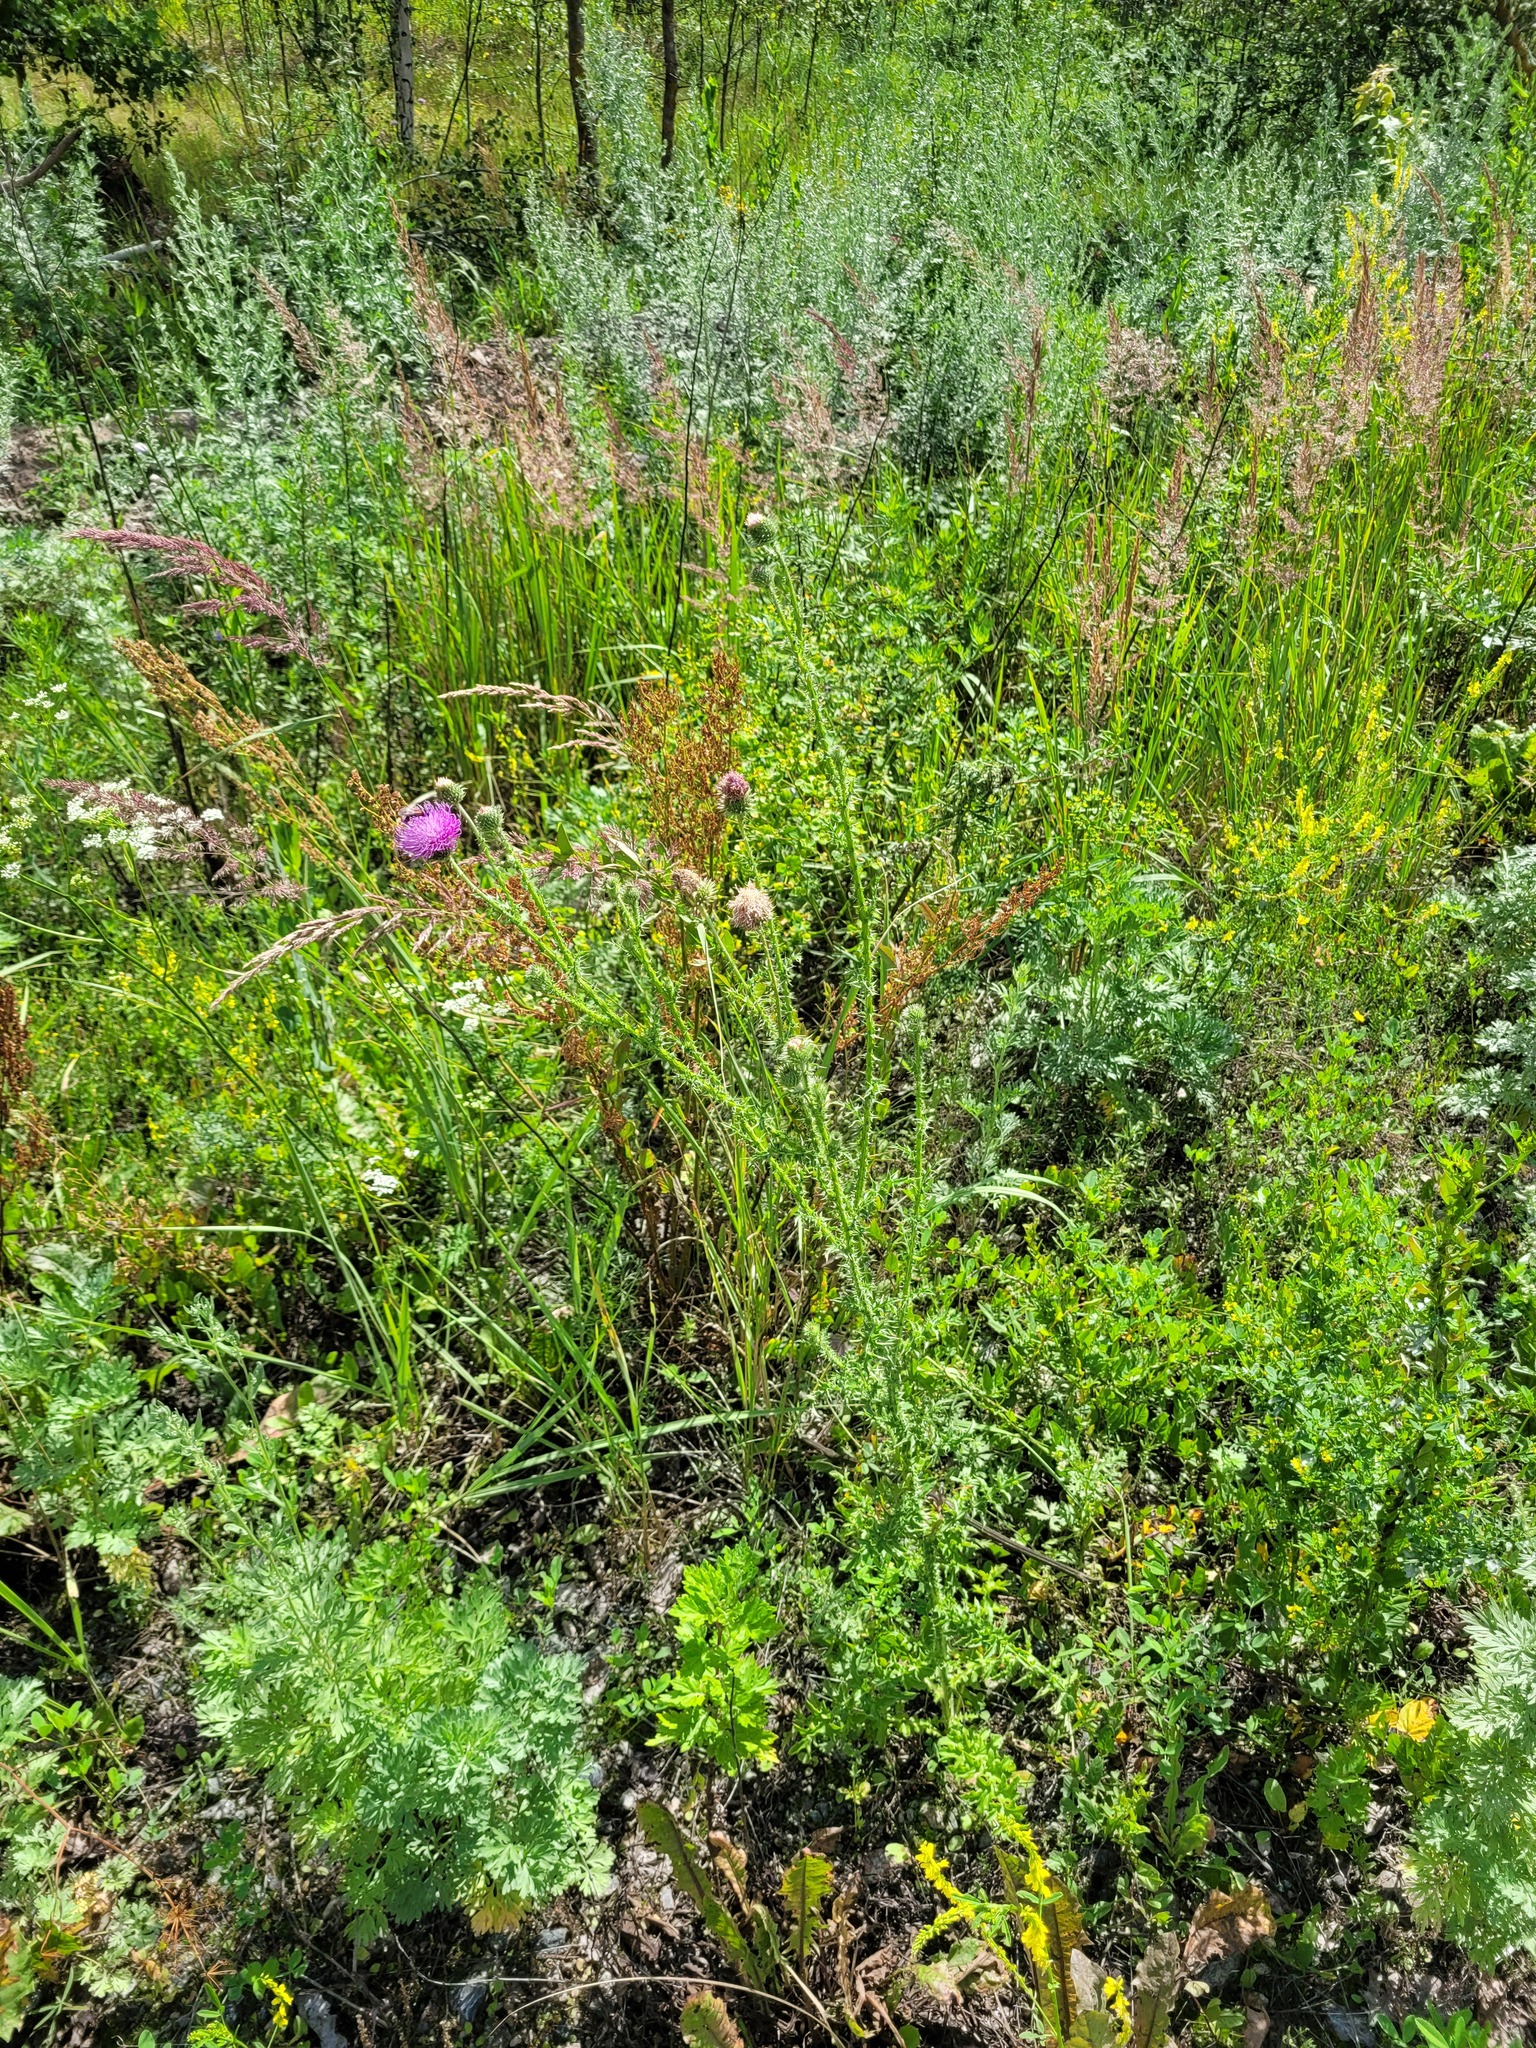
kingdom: Plantae
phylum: Tracheophyta
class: Magnoliopsida
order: Asterales
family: Asteraceae
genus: Carduus
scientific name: Carduus acanthoides
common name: Plumeless thistle
